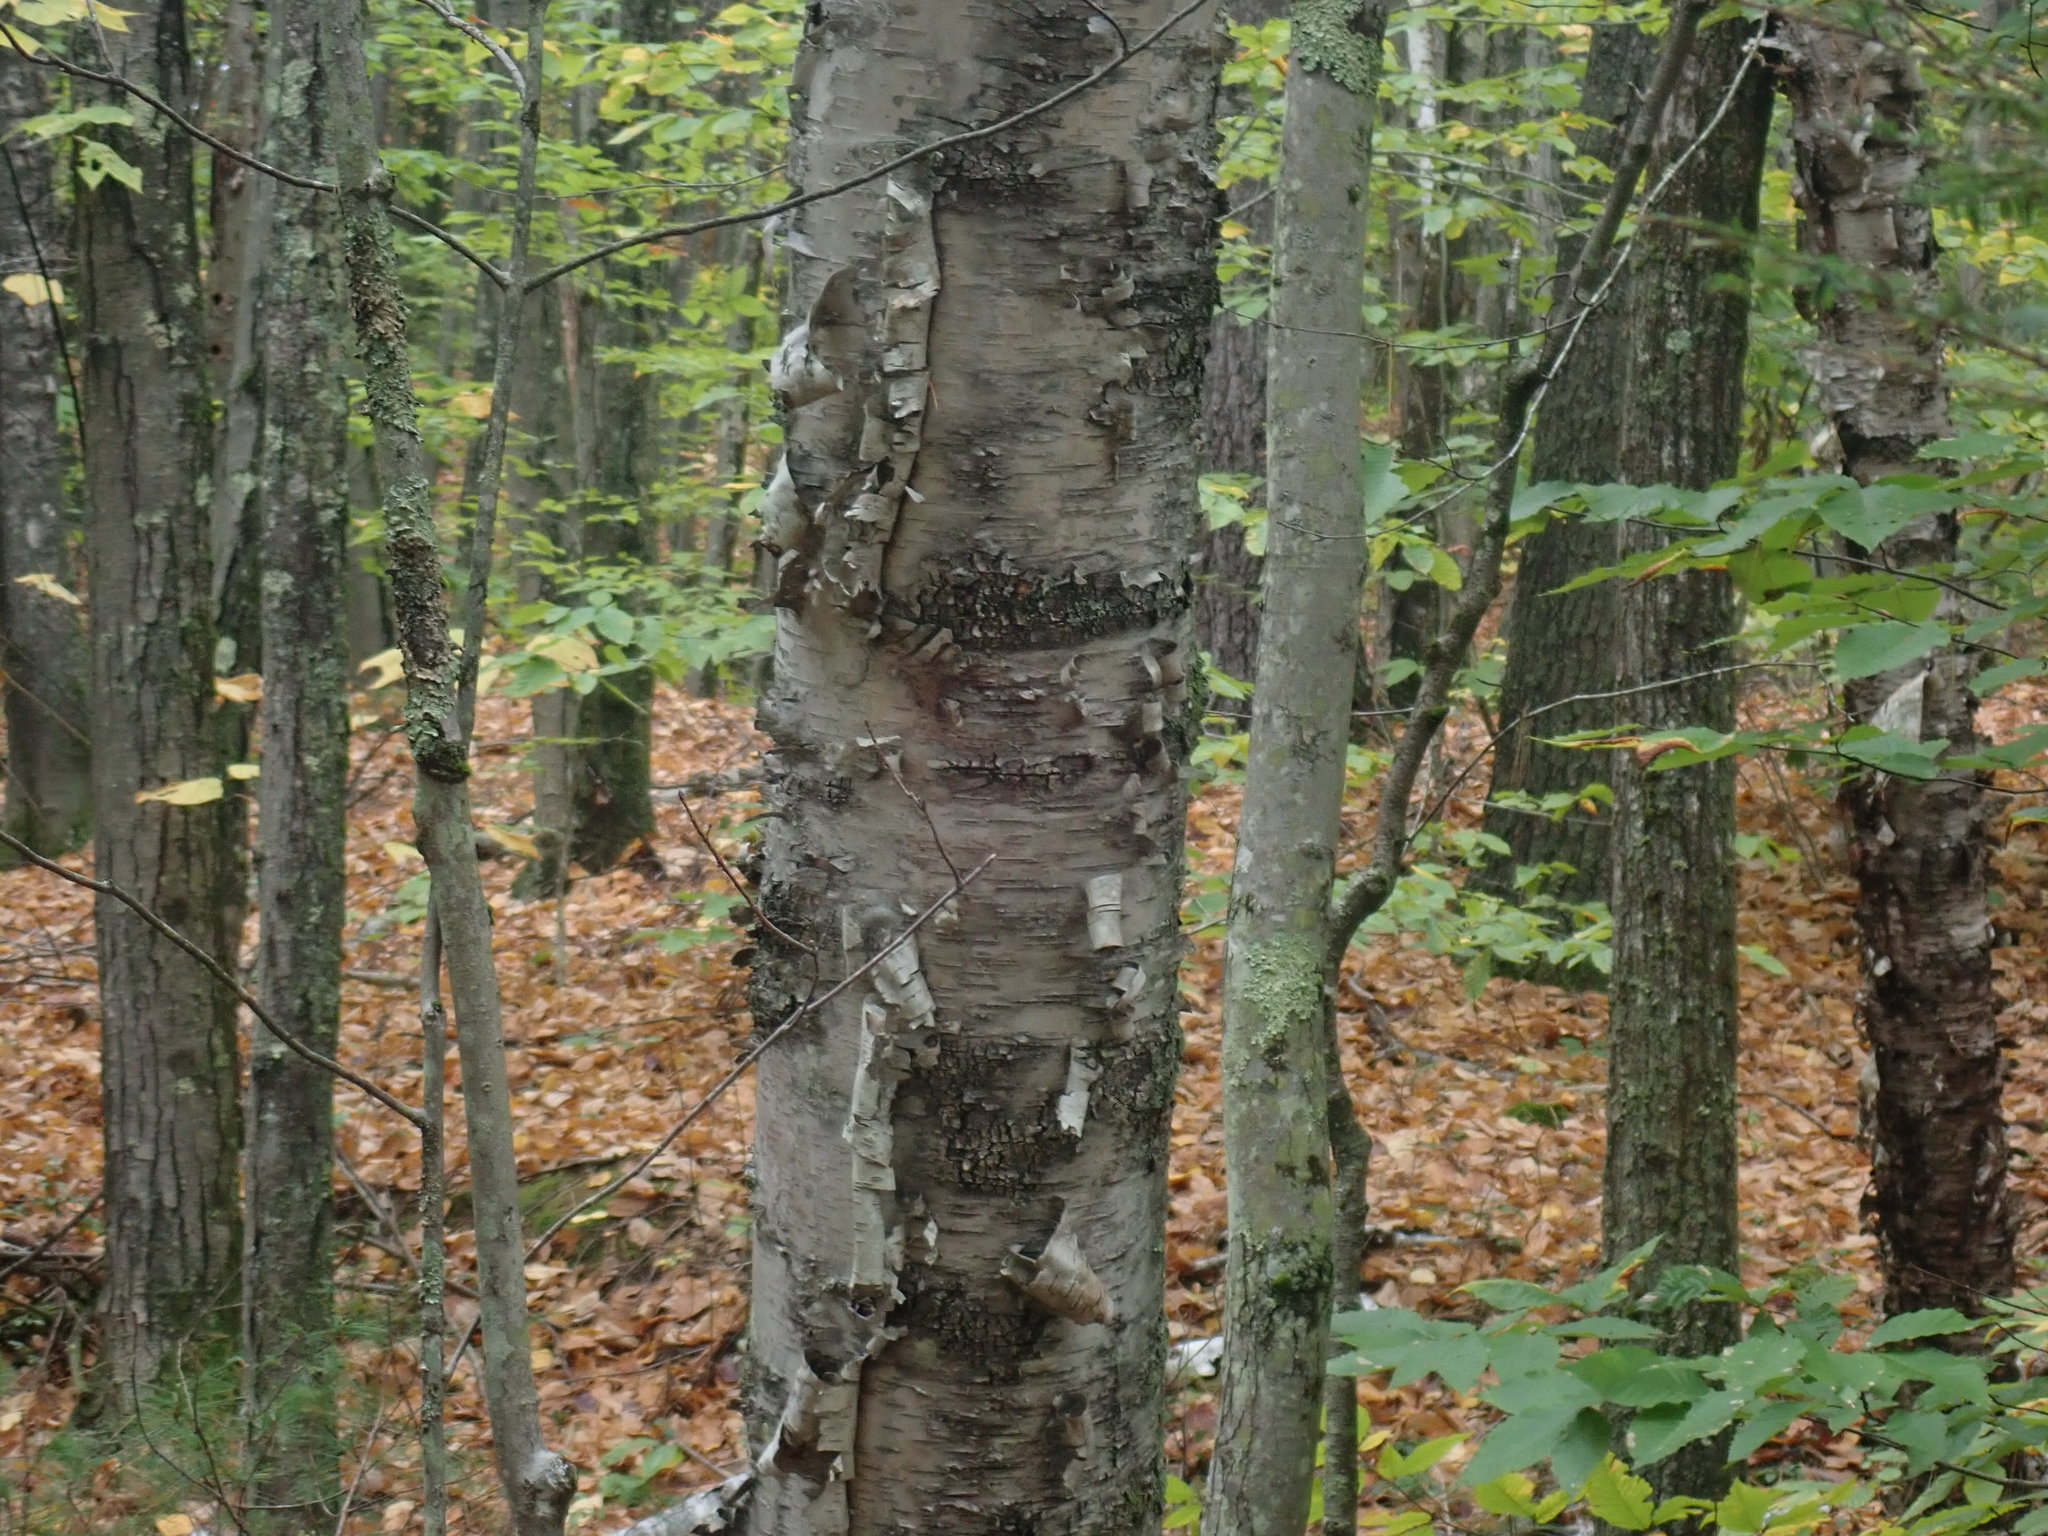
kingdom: Plantae
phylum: Tracheophyta
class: Magnoliopsida
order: Fagales
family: Betulaceae
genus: Betula
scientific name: Betula papyrifera
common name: Paper birch
